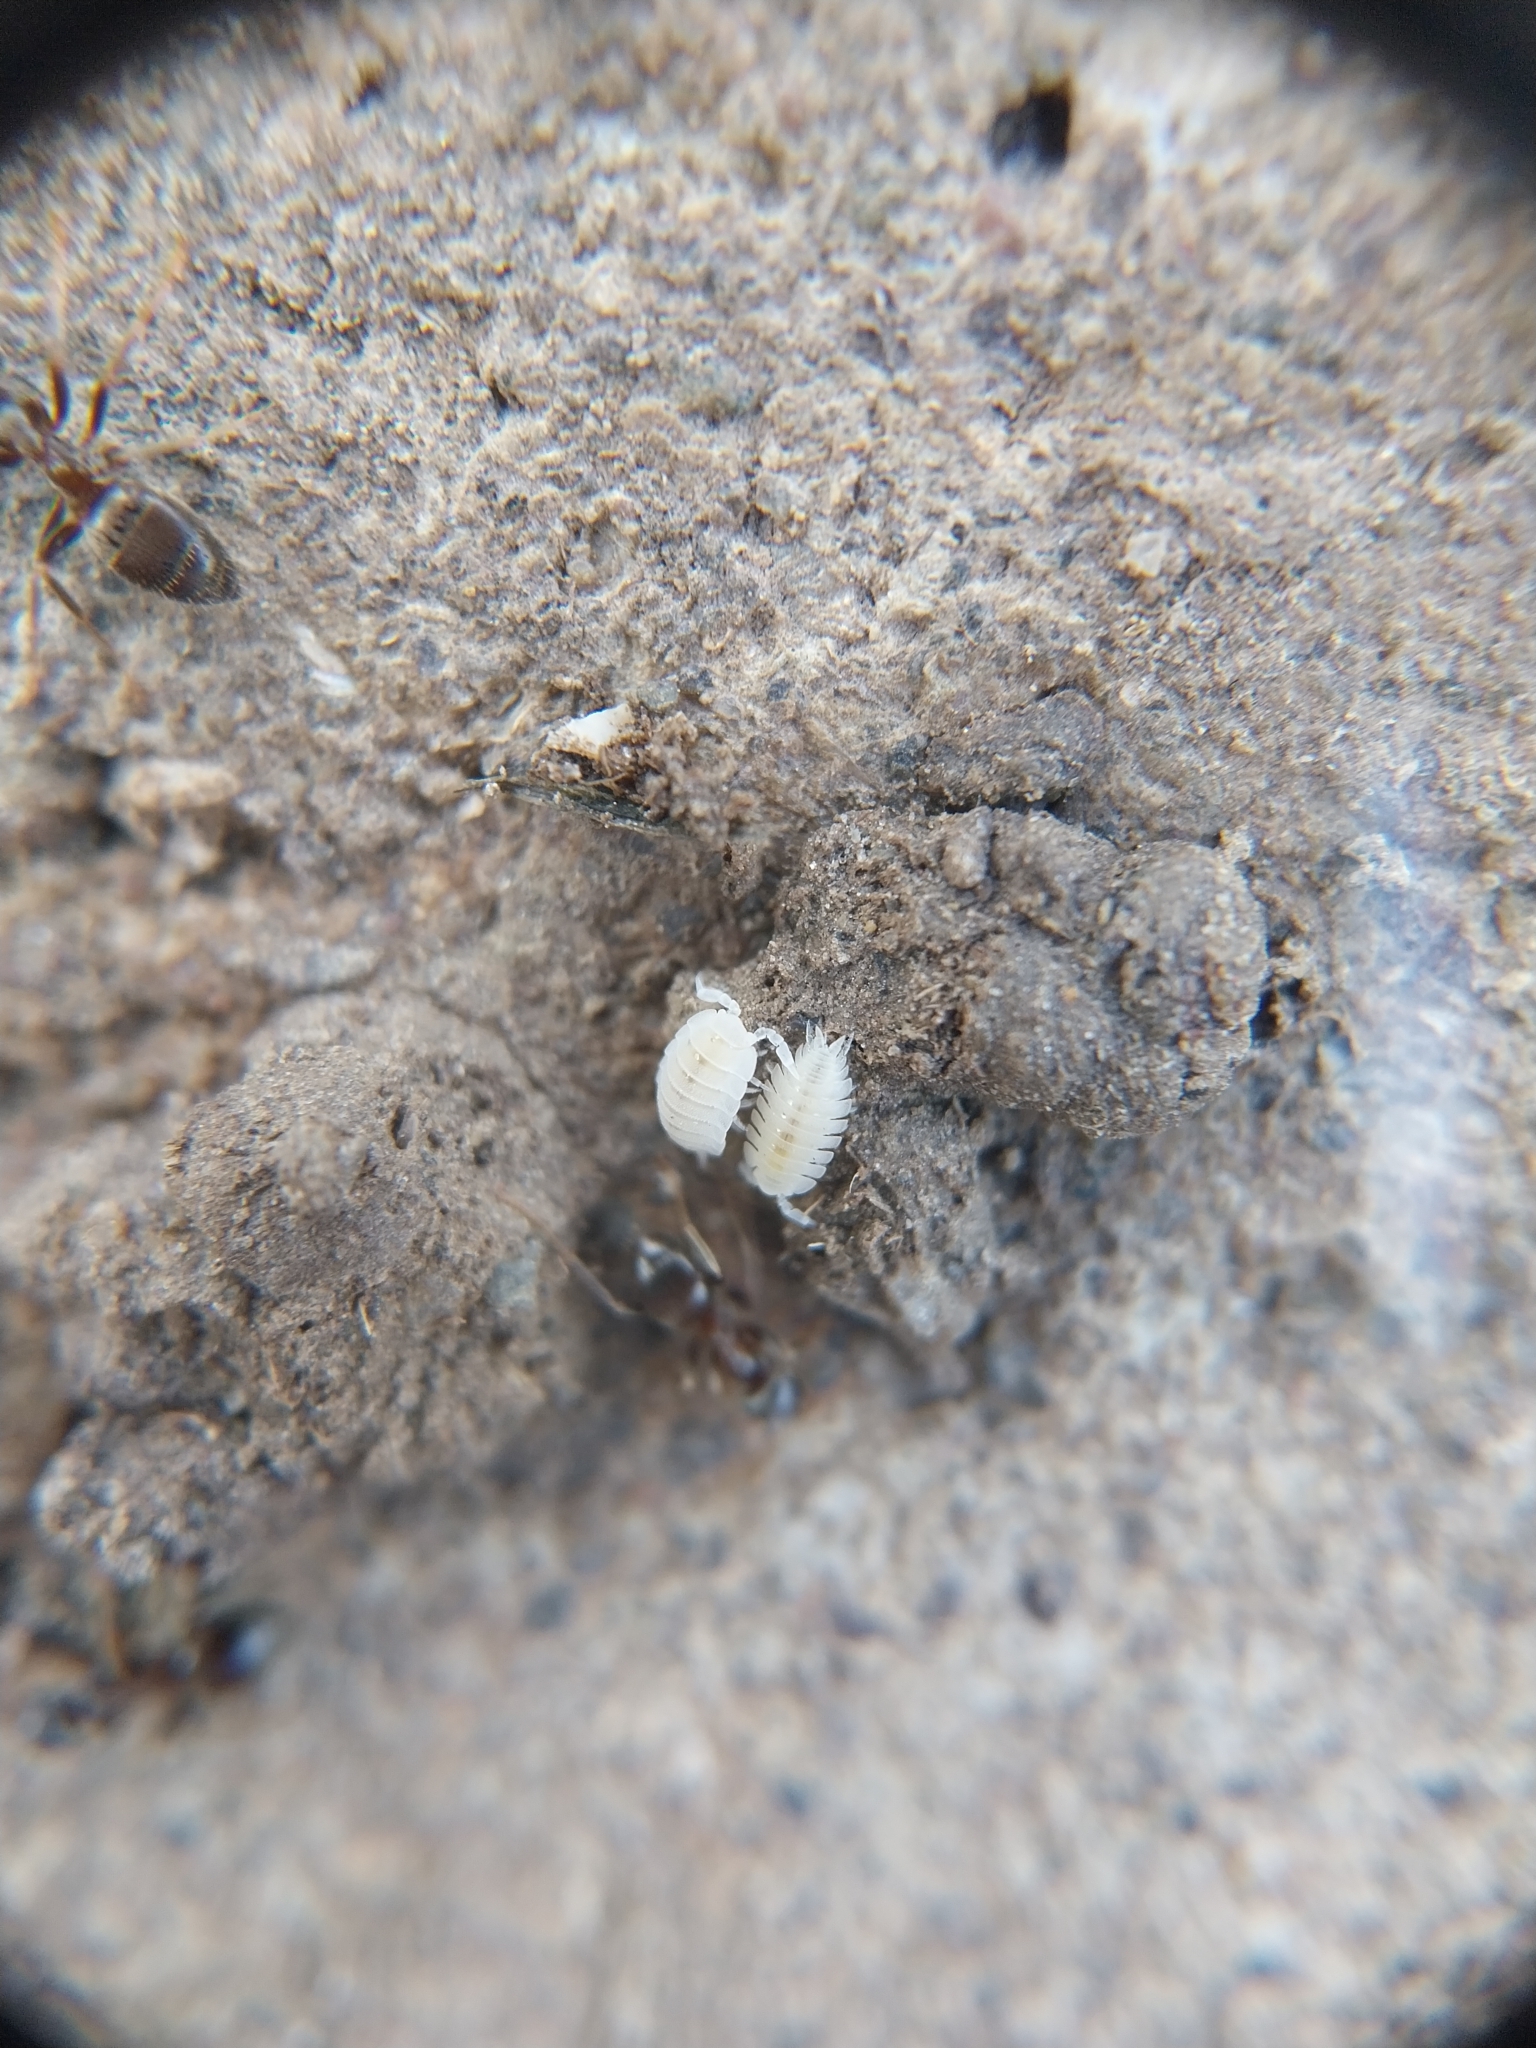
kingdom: Animalia
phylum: Arthropoda
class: Malacostraca
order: Isopoda
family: Platyarthridae
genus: Platyarthrus
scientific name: Platyarthrus hoffmannseggii
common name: Ant woodlouse
